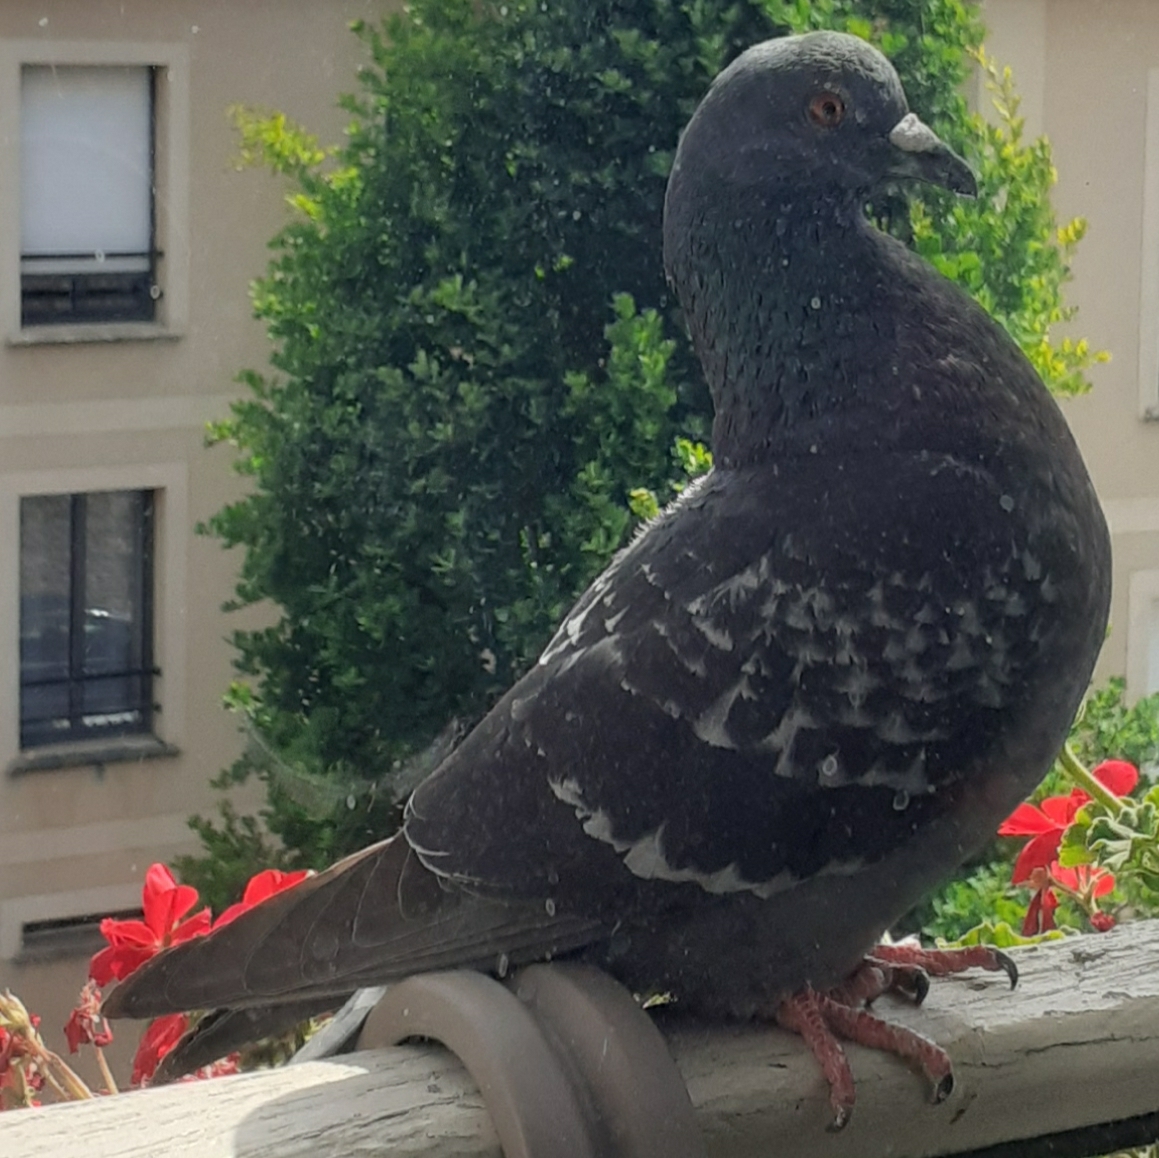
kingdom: Animalia
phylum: Chordata
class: Aves
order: Columbiformes
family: Columbidae
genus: Columba
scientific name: Columba livia
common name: Rock pigeon
